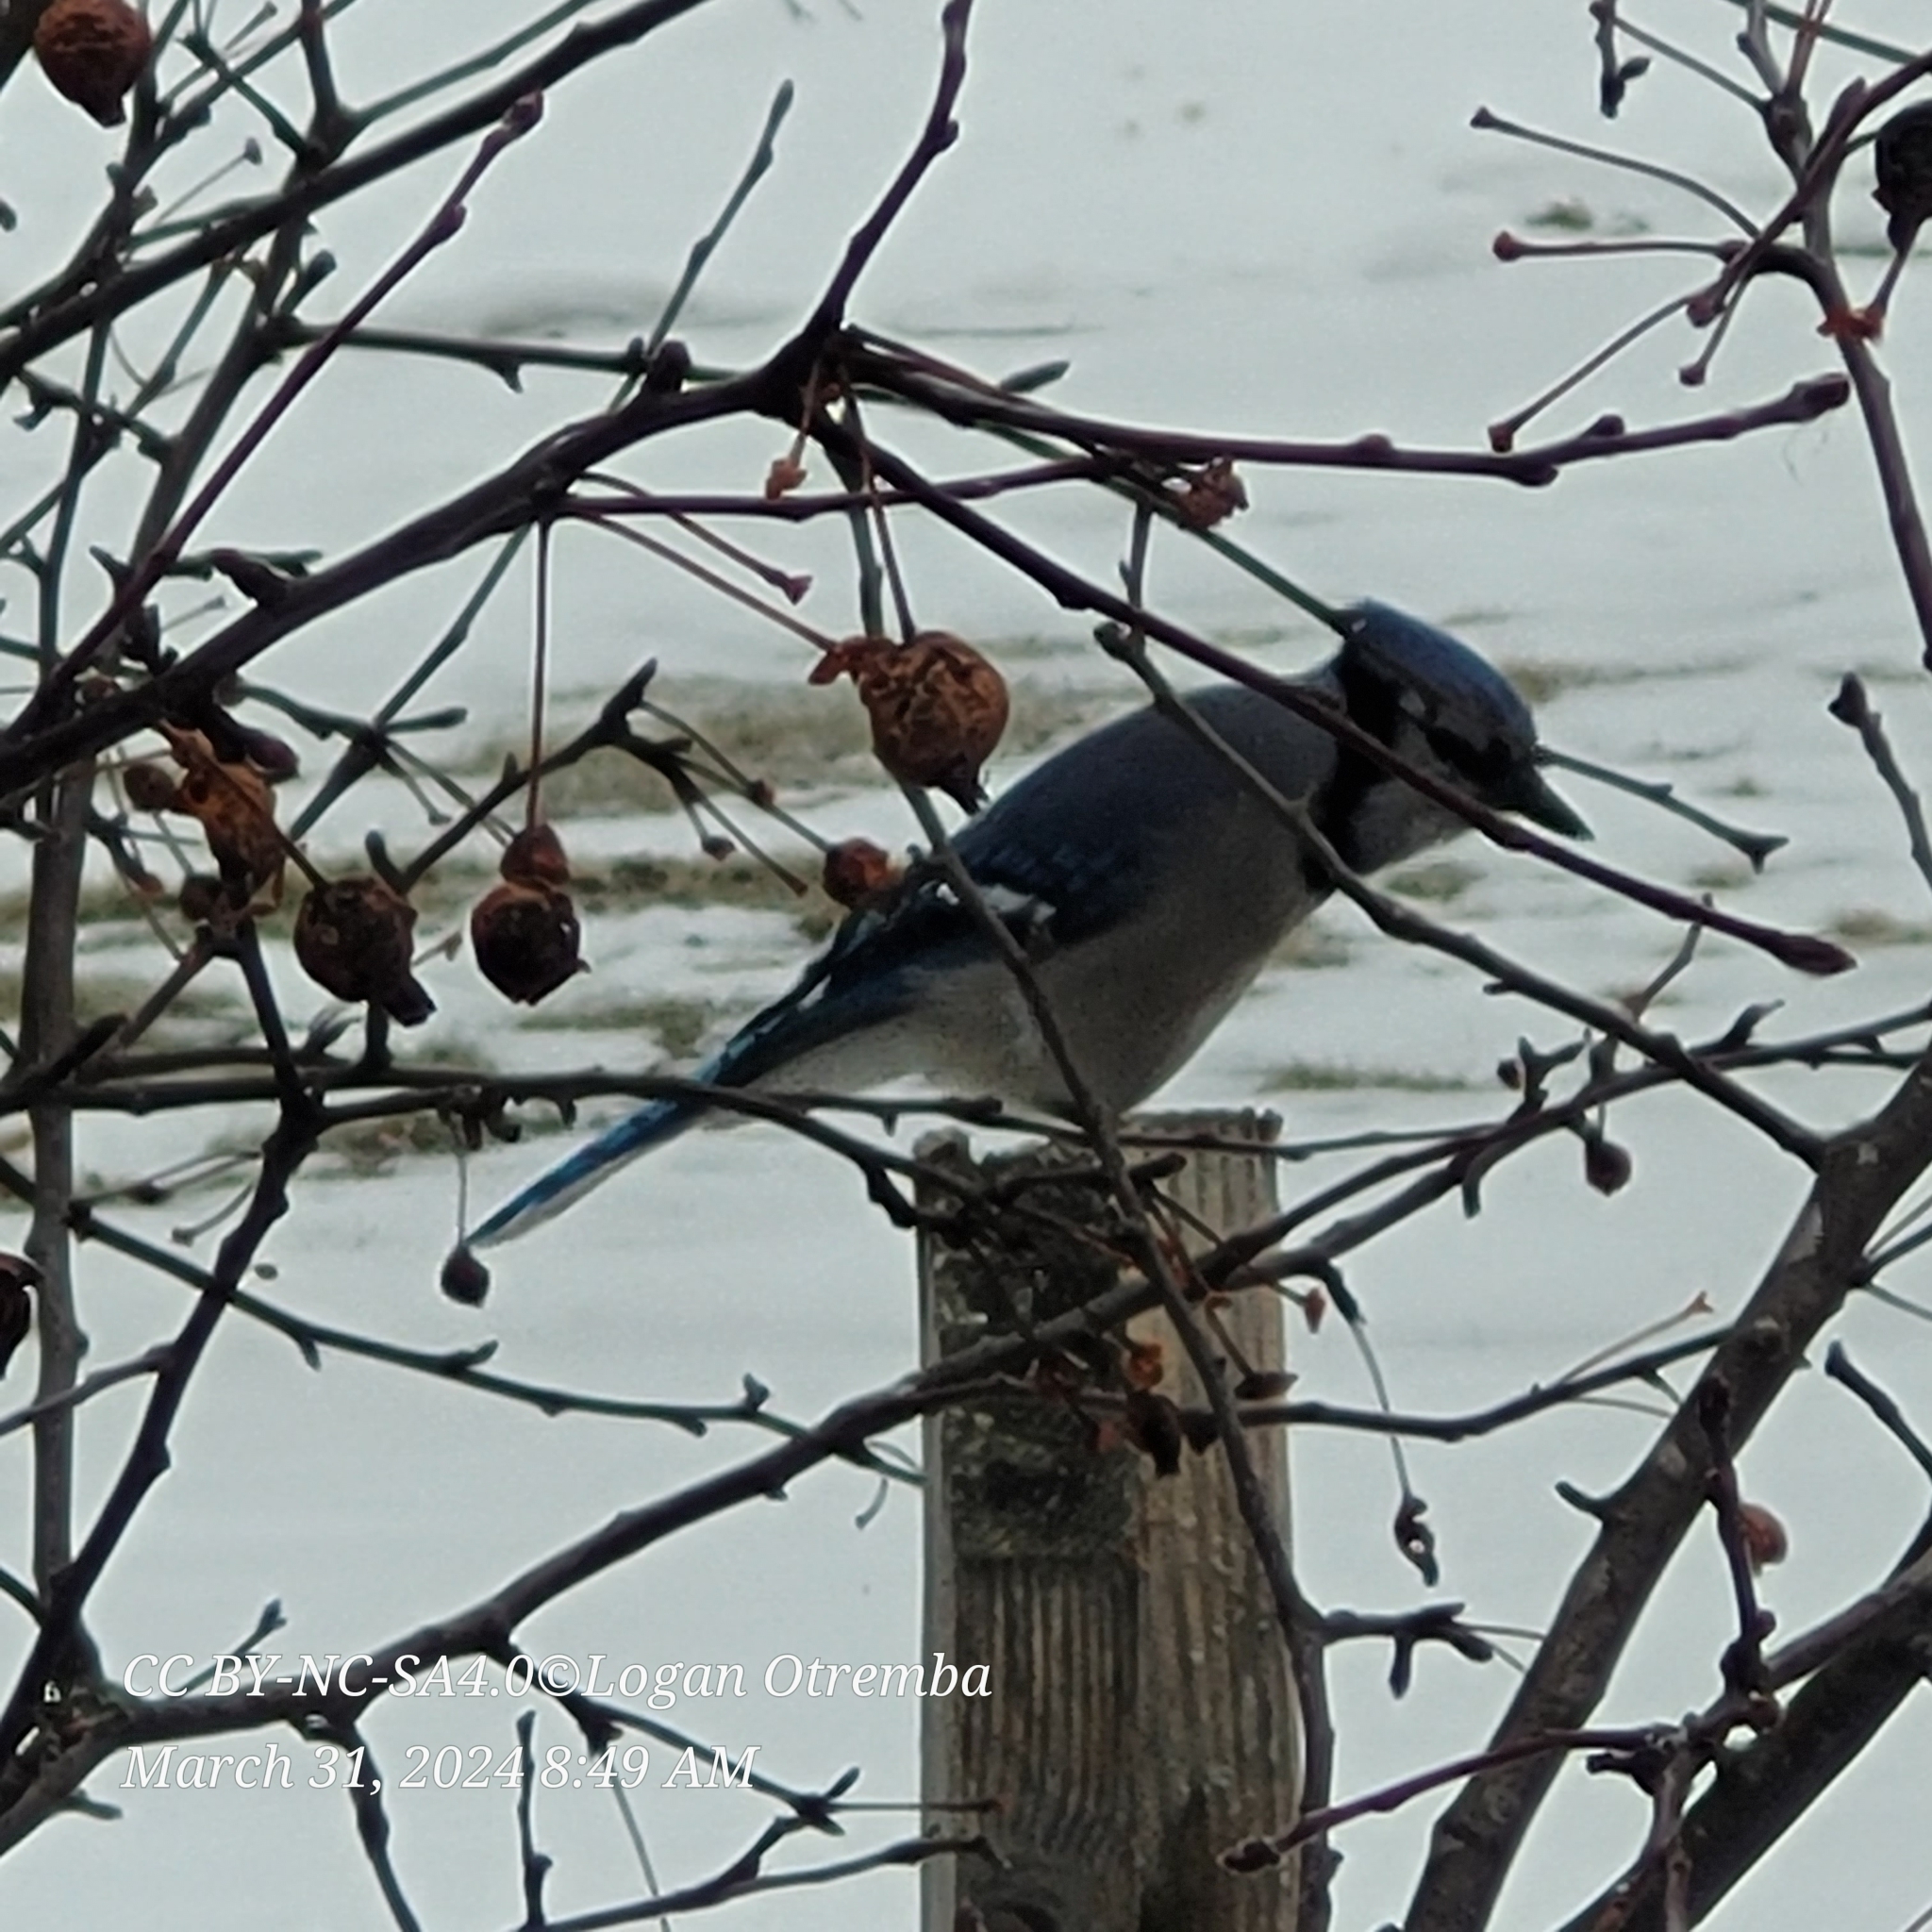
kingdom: Animalia
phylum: Chordata
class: Aves
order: Passeriformes
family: Corvidae
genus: Cyanocitta
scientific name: Cyanocitta cristata
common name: Blue jay
